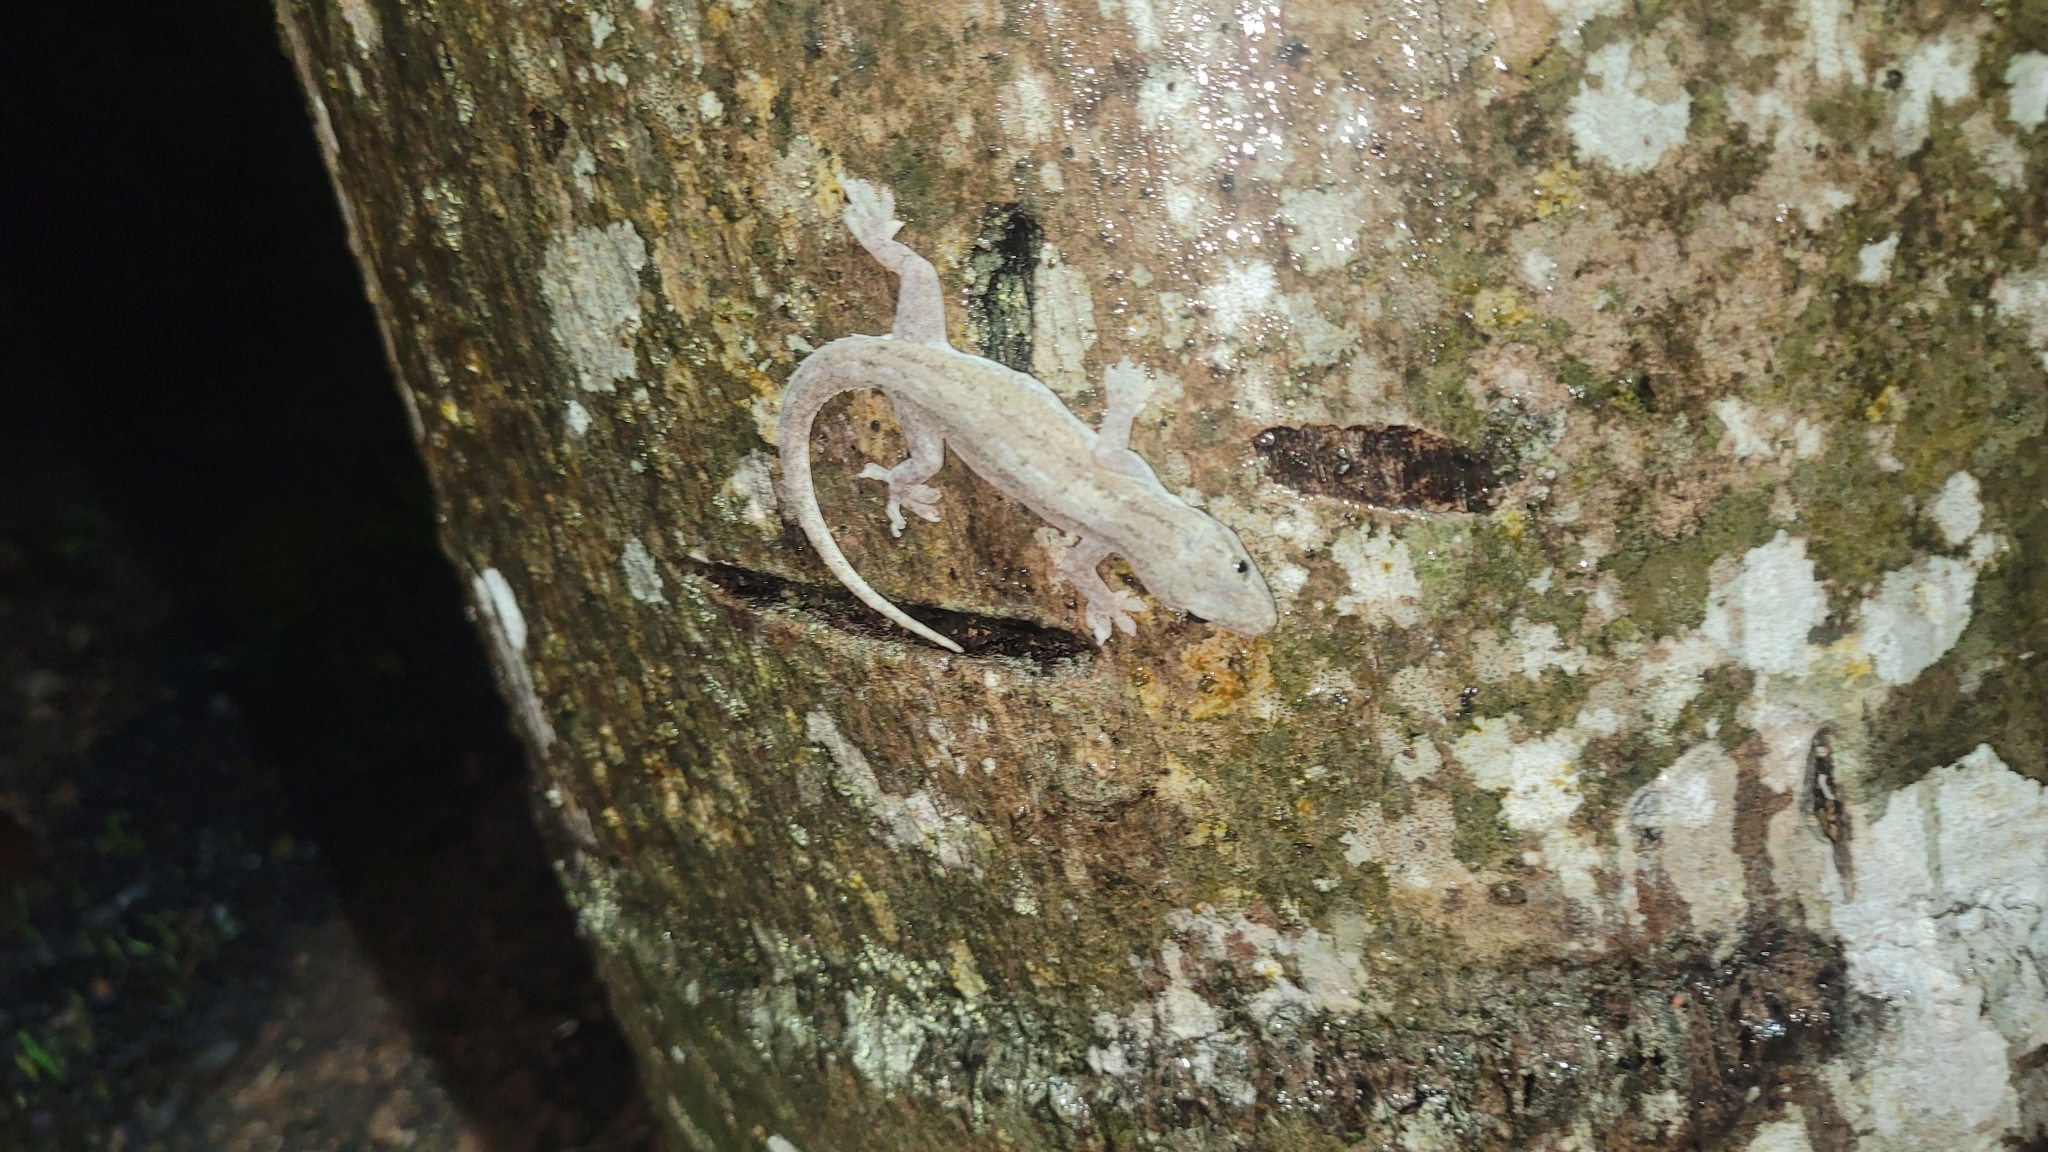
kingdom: Animalia
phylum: Chordata
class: Squamata
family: Gekkonidae
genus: Hemidactylus
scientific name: Hemidactylus frenatus
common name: Common house gecko
